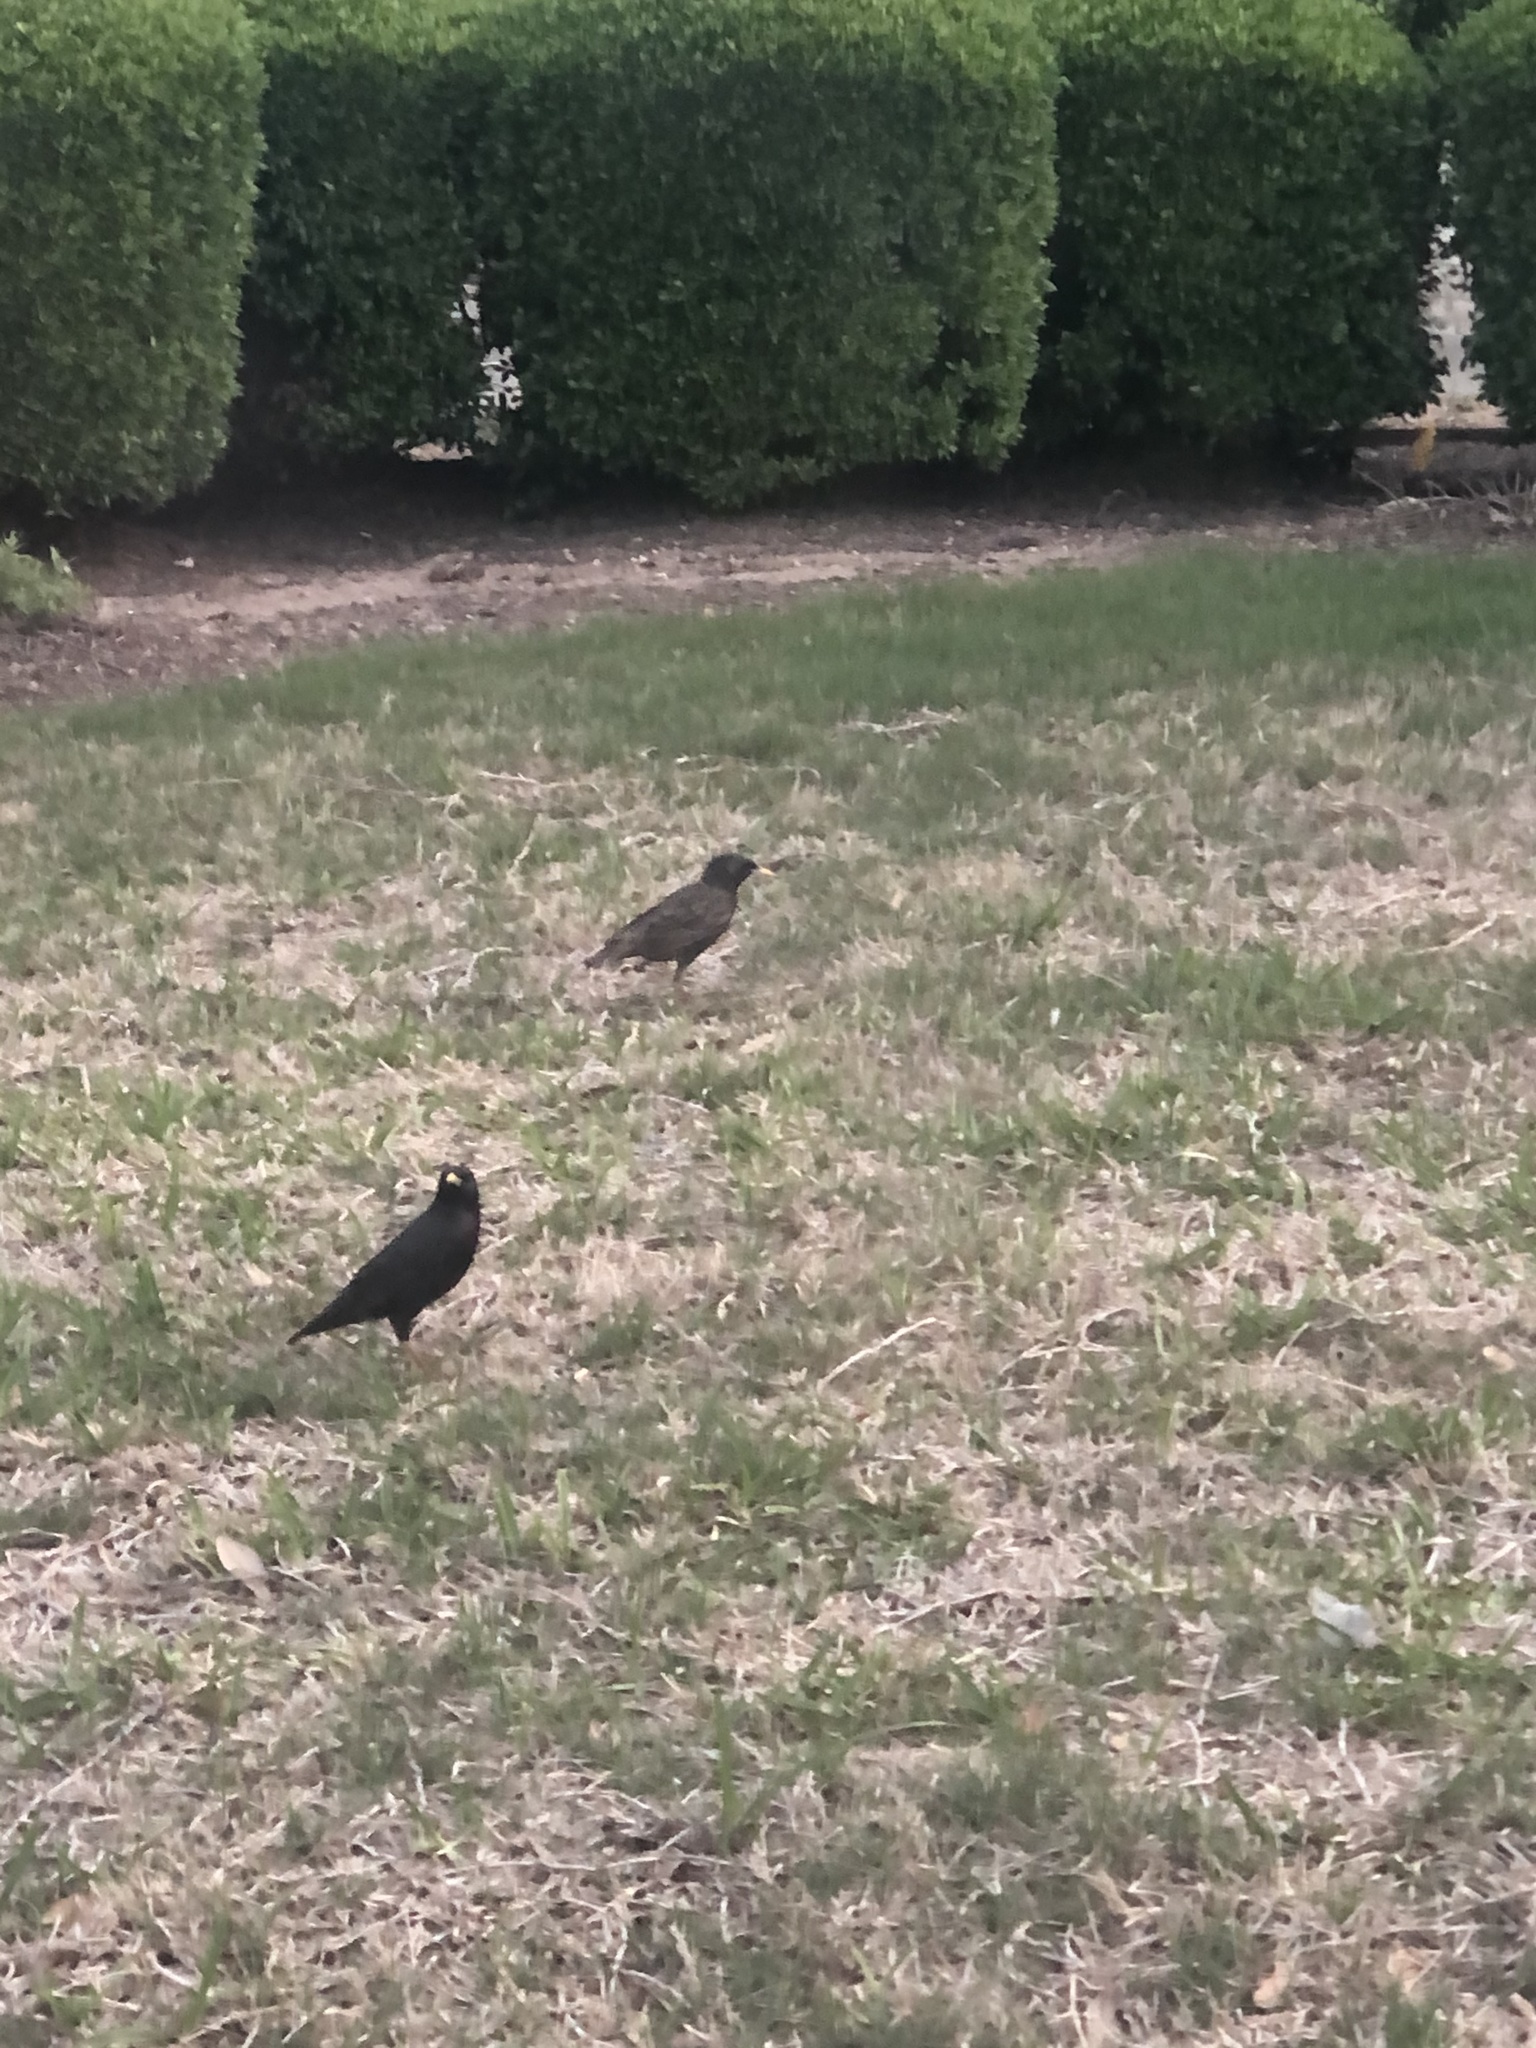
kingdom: Animalia
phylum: Chordata
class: Aves
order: Passeriformes
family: Sturnidae
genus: Sturnus
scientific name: Sturnus vulgaris
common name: Common starling
